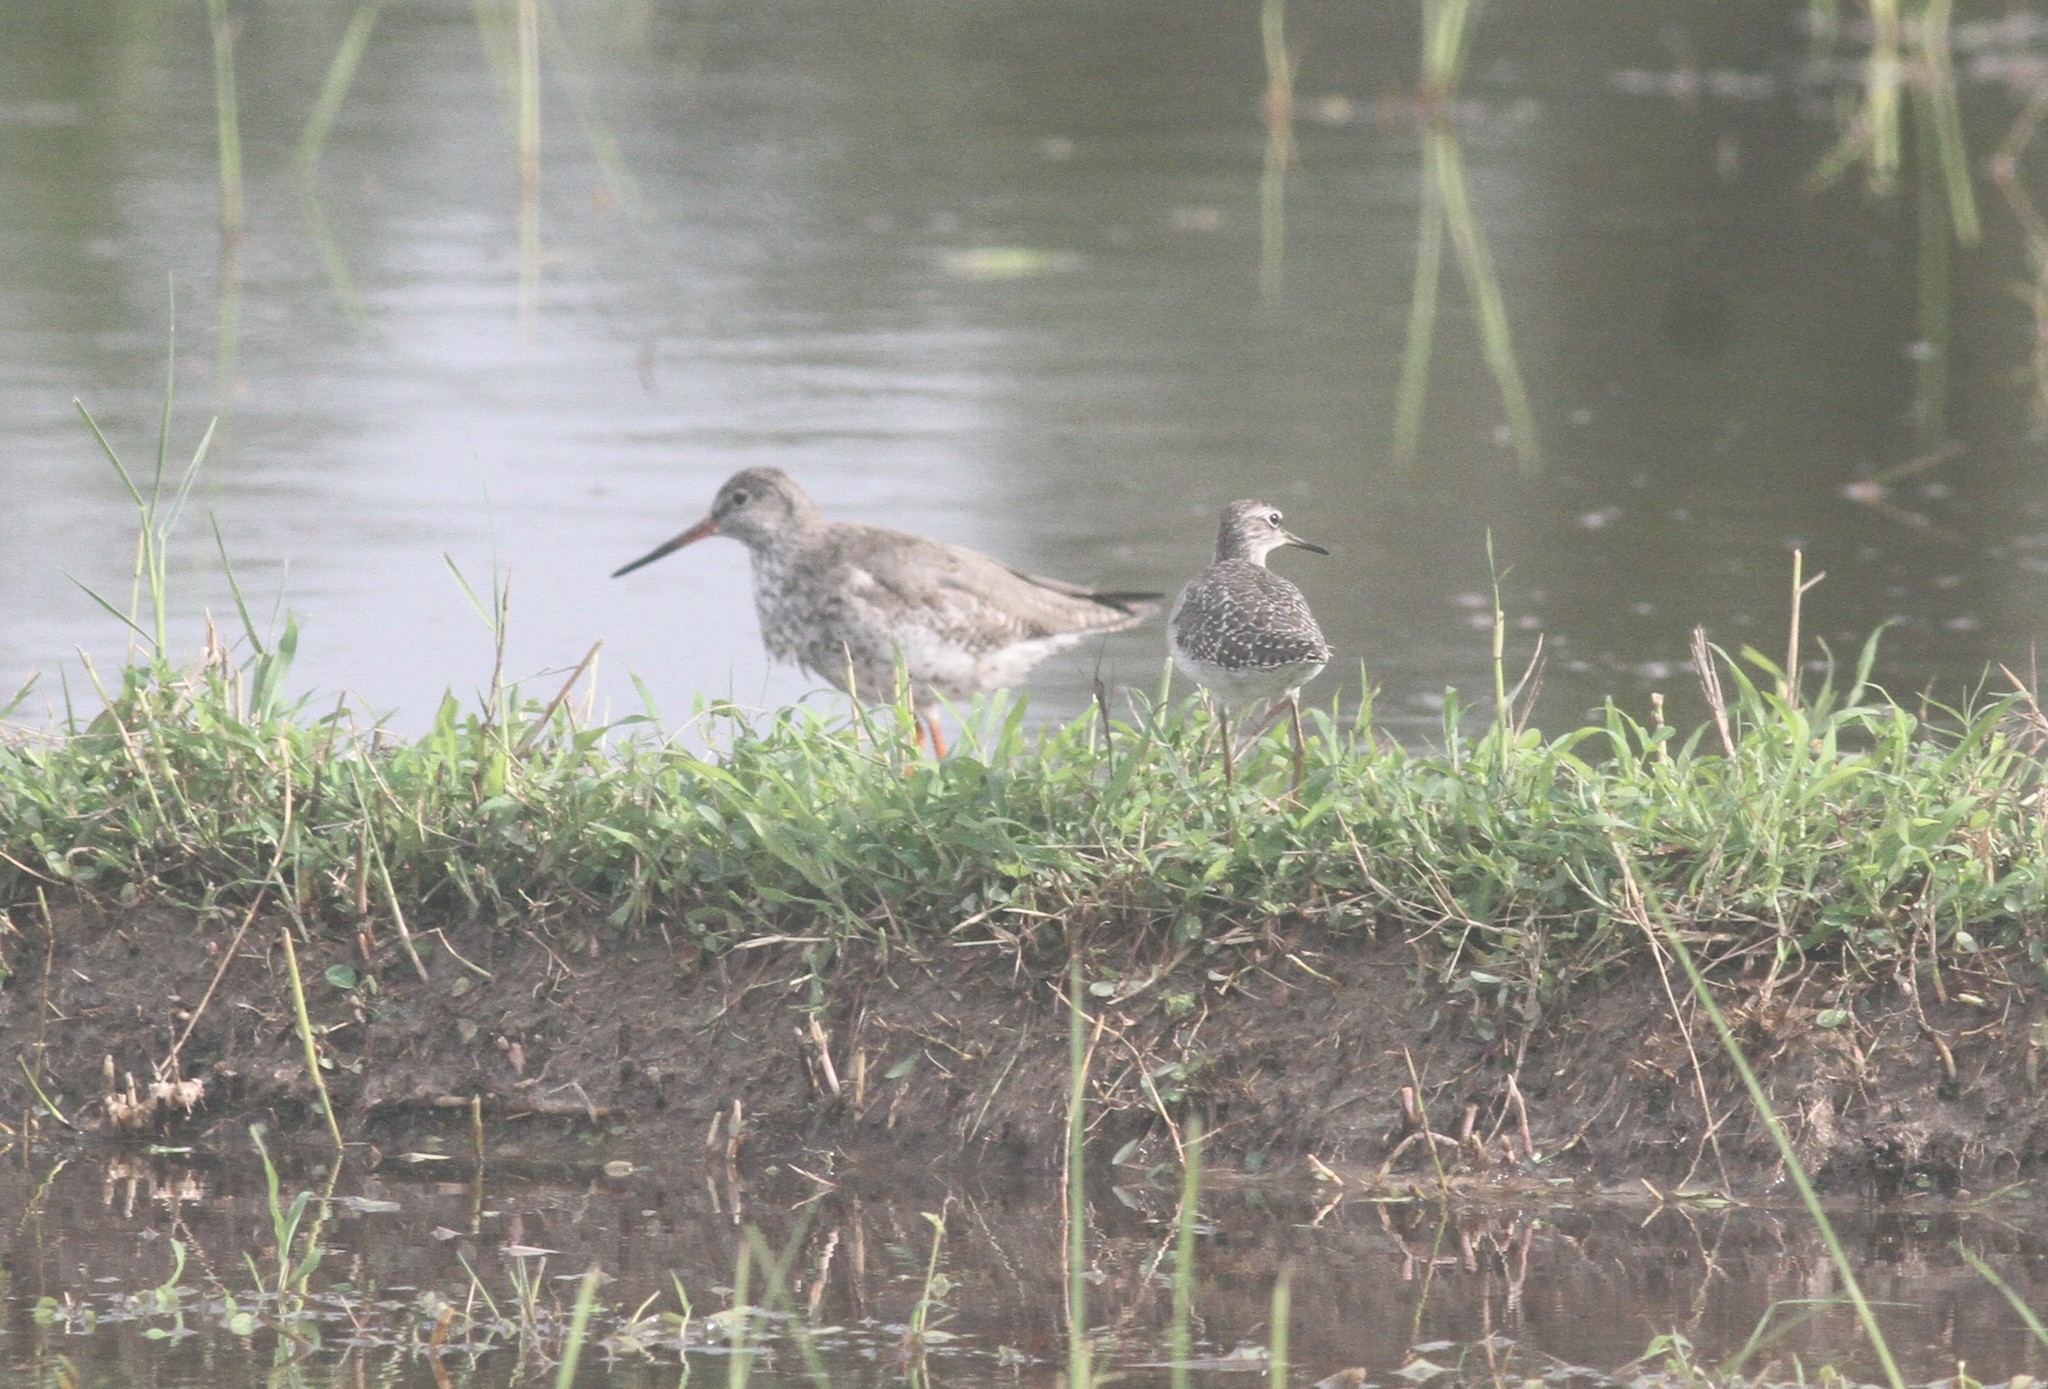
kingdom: Animalia
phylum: Chordata
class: Aves
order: Charadriiformes
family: Scolopacidae
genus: Tringa
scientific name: Tringa totanus
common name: Common redshank
